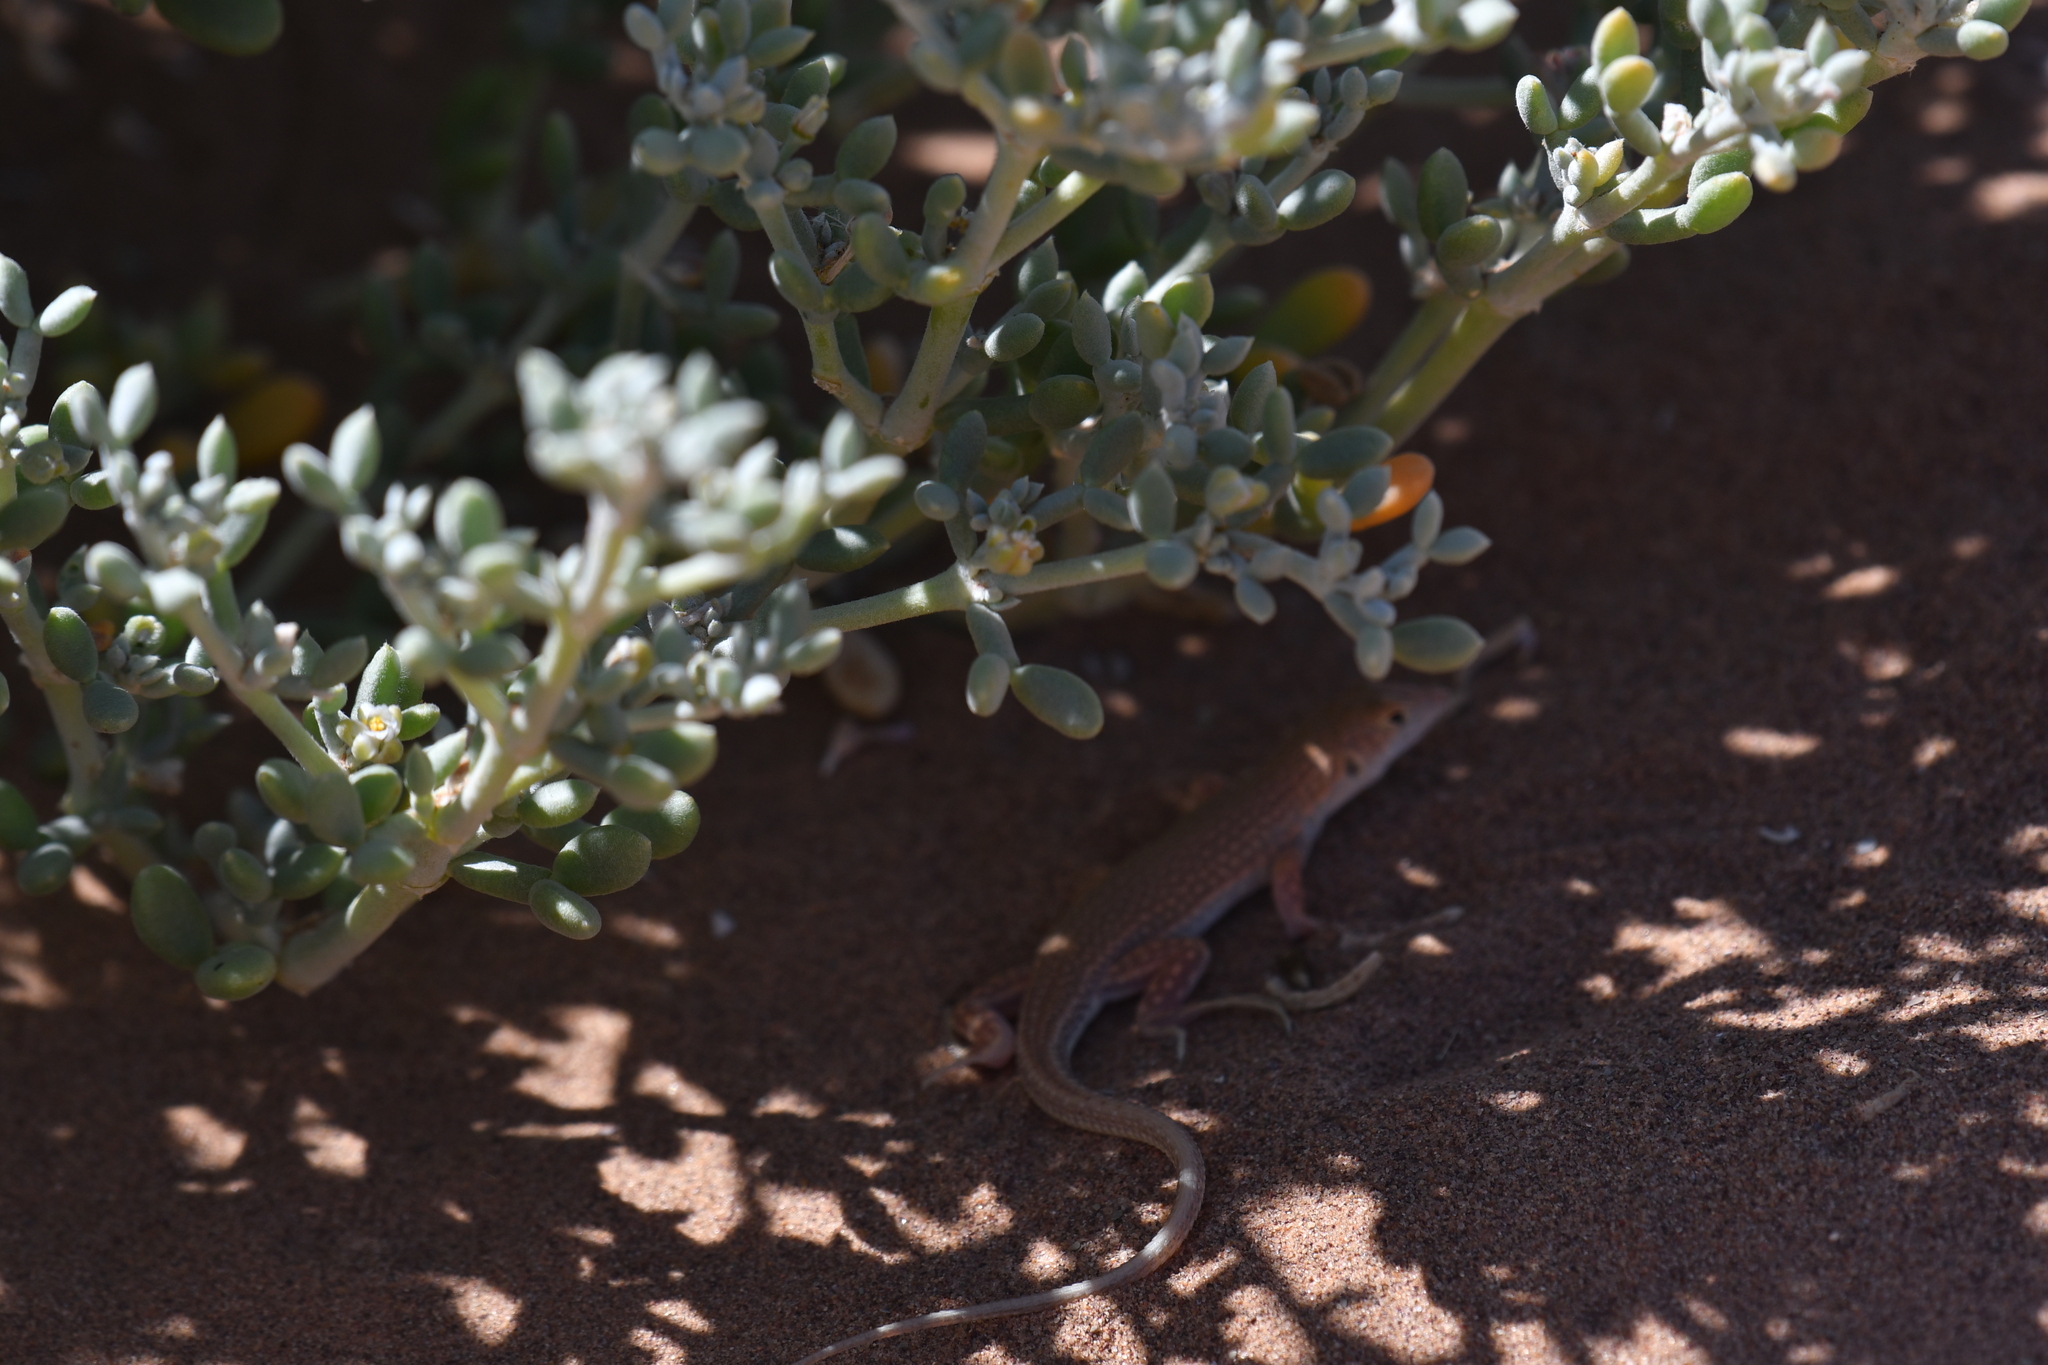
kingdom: Animalia
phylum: Chordata
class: Squamata
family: Lacertidae
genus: Acanthodactylus
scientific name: Acanthodactylus dumerilii
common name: Duméril's fringe-fingered lizard
